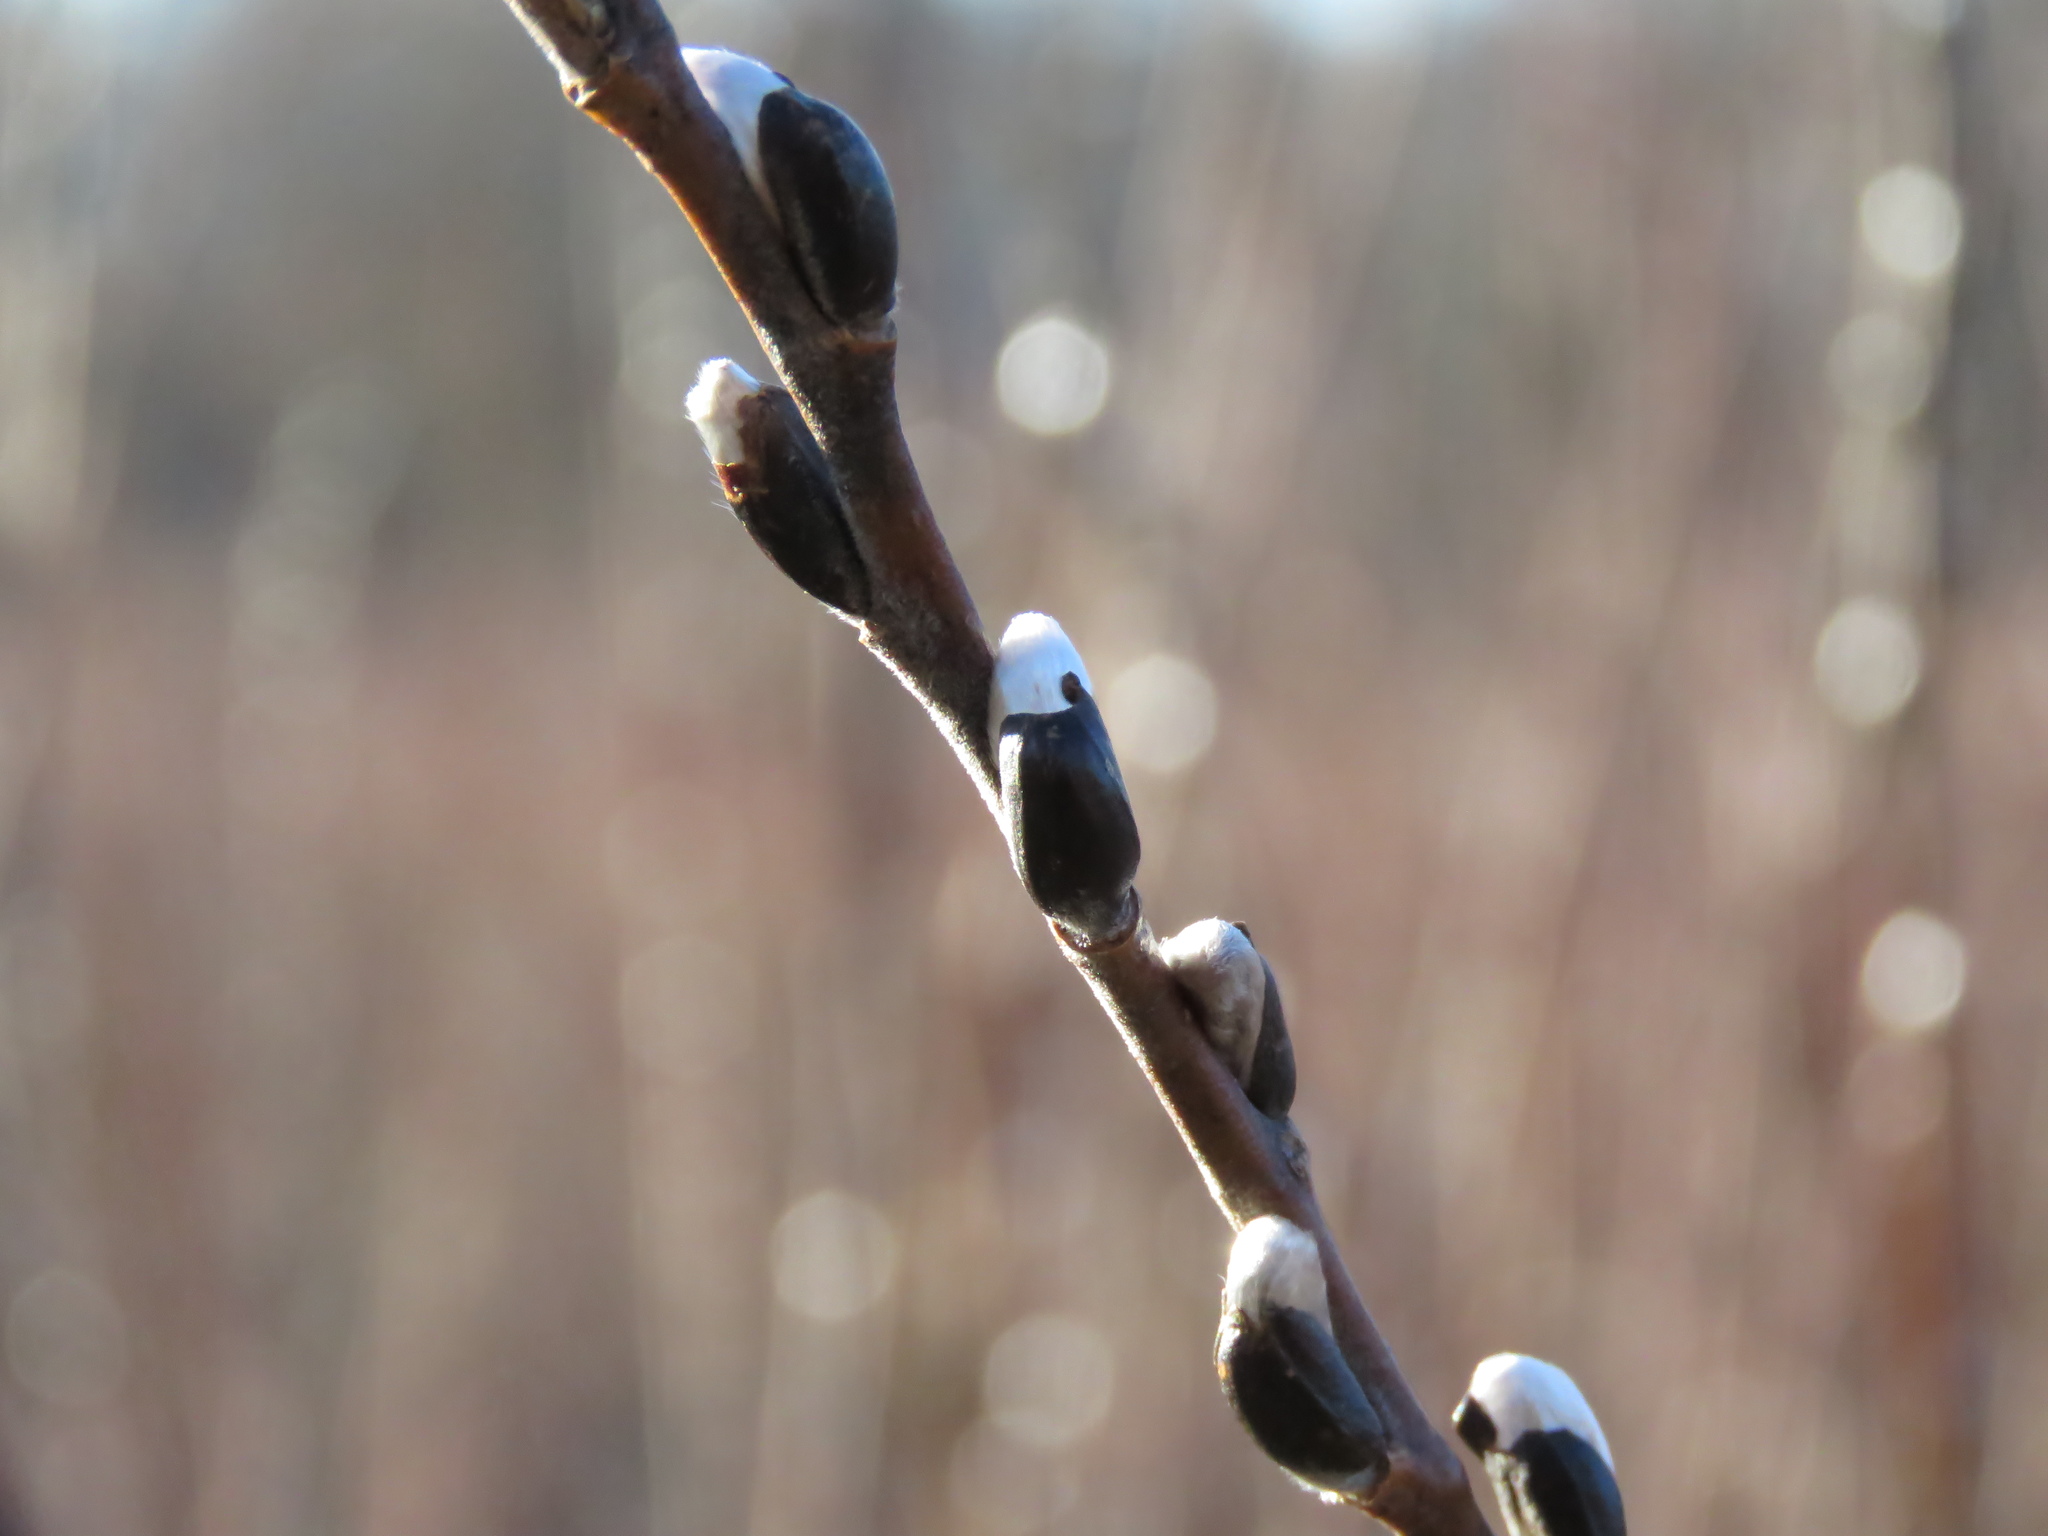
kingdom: Plantae
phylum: Tracheophyta
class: Magnoliopsida
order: Malpighiales
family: Salicaceae
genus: Salix
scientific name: Salix discolor
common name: Glaucous willow
